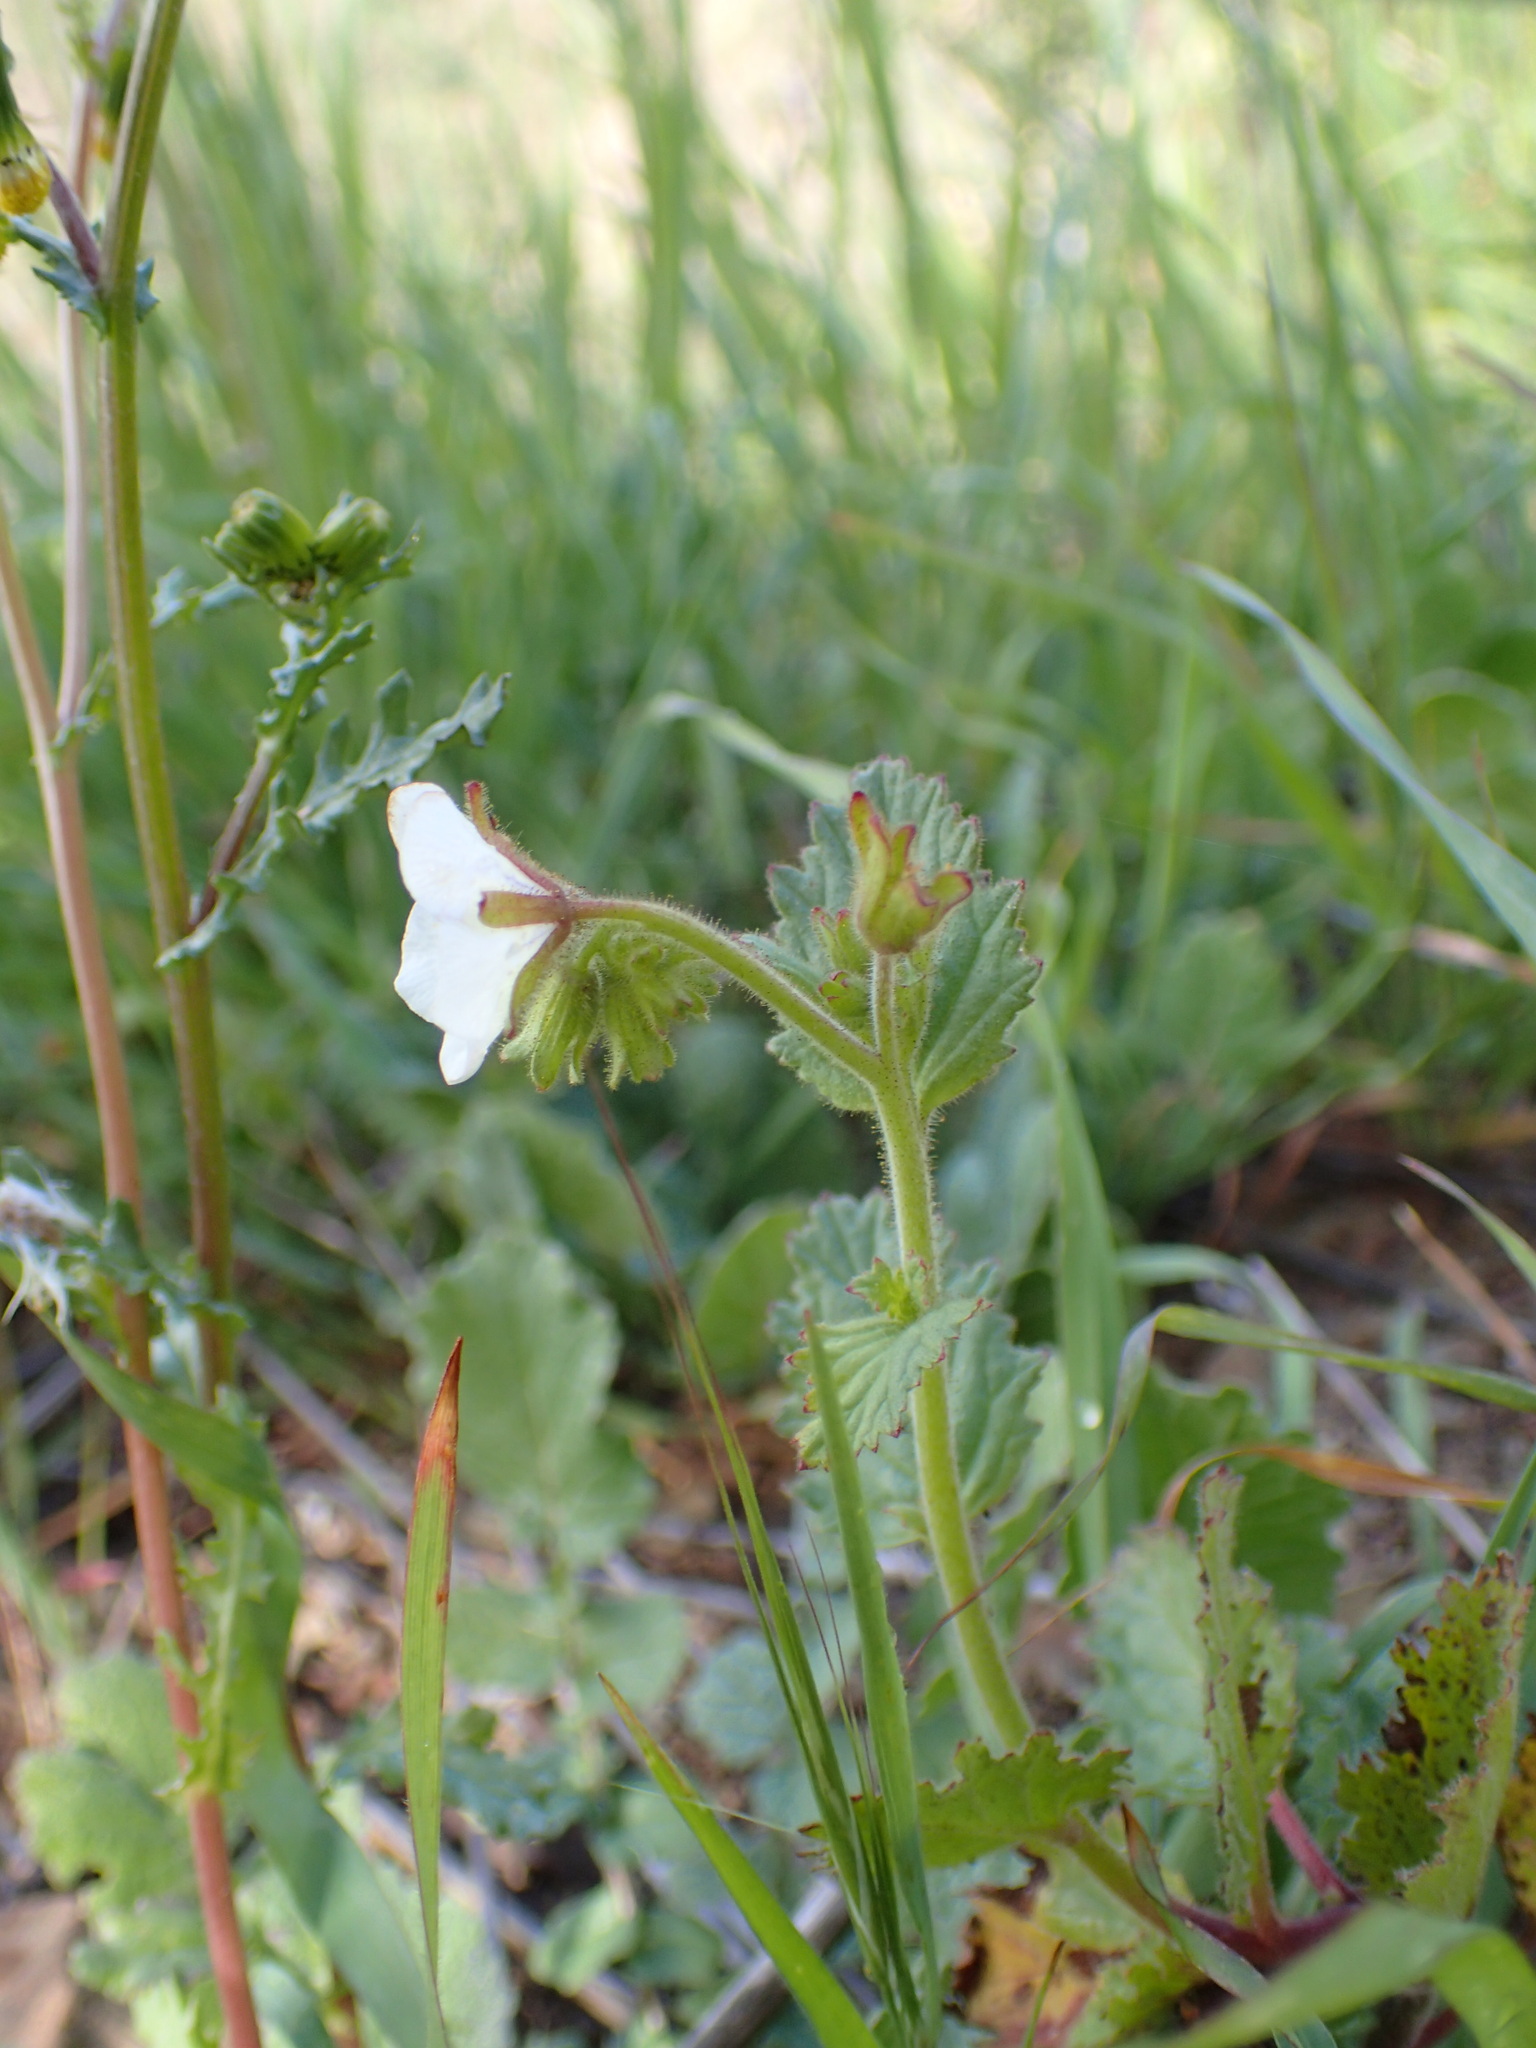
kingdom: Plantae
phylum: Tracheophyta
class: Magnoliopsida
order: Boraginales
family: Hydrophyllaceae
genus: Phacelia
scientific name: Phacelia viscida
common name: Sticky phacelia
